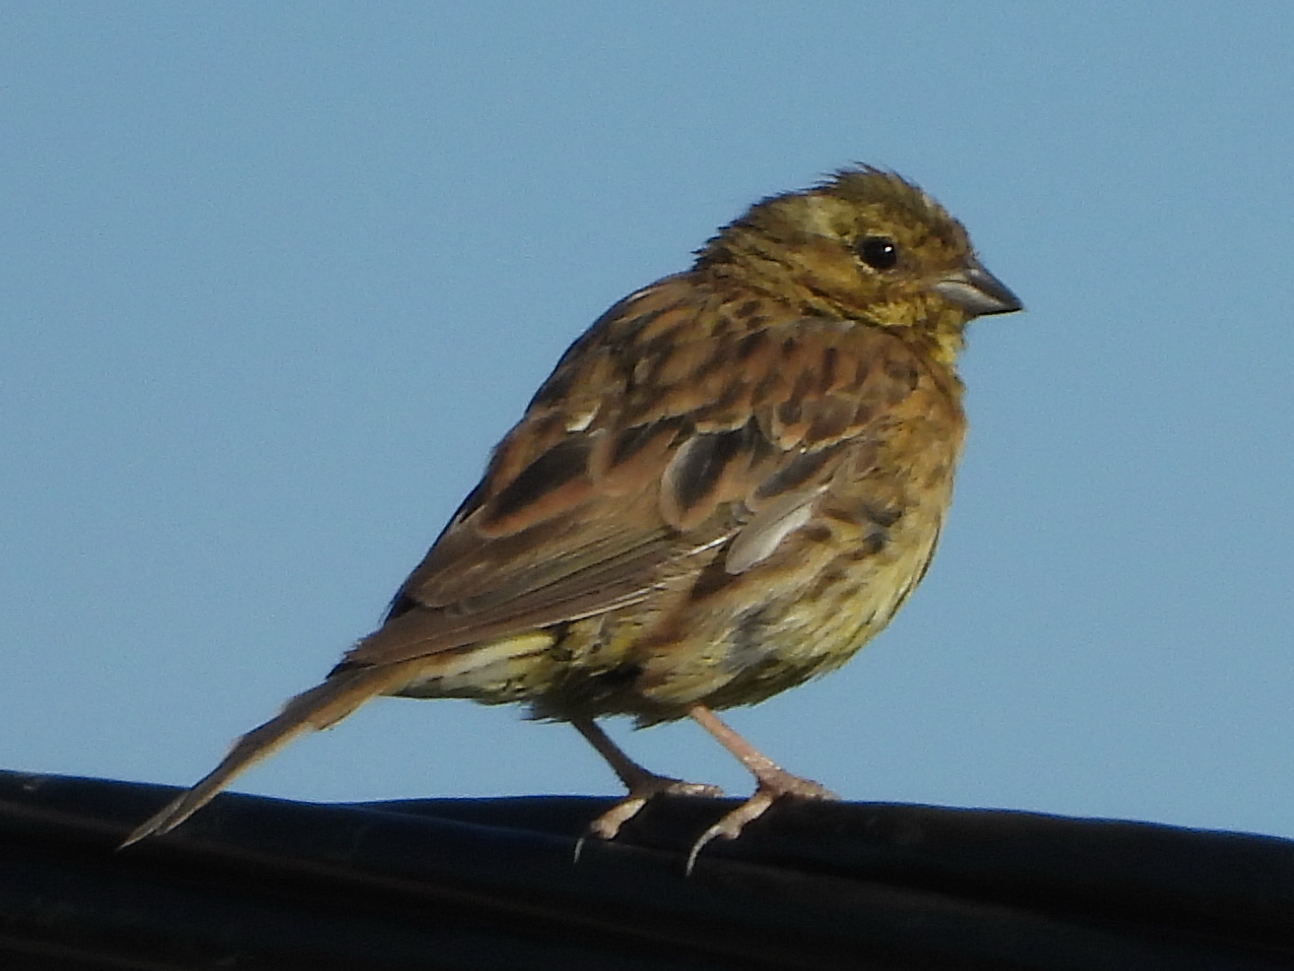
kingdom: Animalia
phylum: Chordata
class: Aves
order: Passeriformes
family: Emberizidae
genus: Emberiza
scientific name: Emberiza citrinella
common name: Yellowhammer
